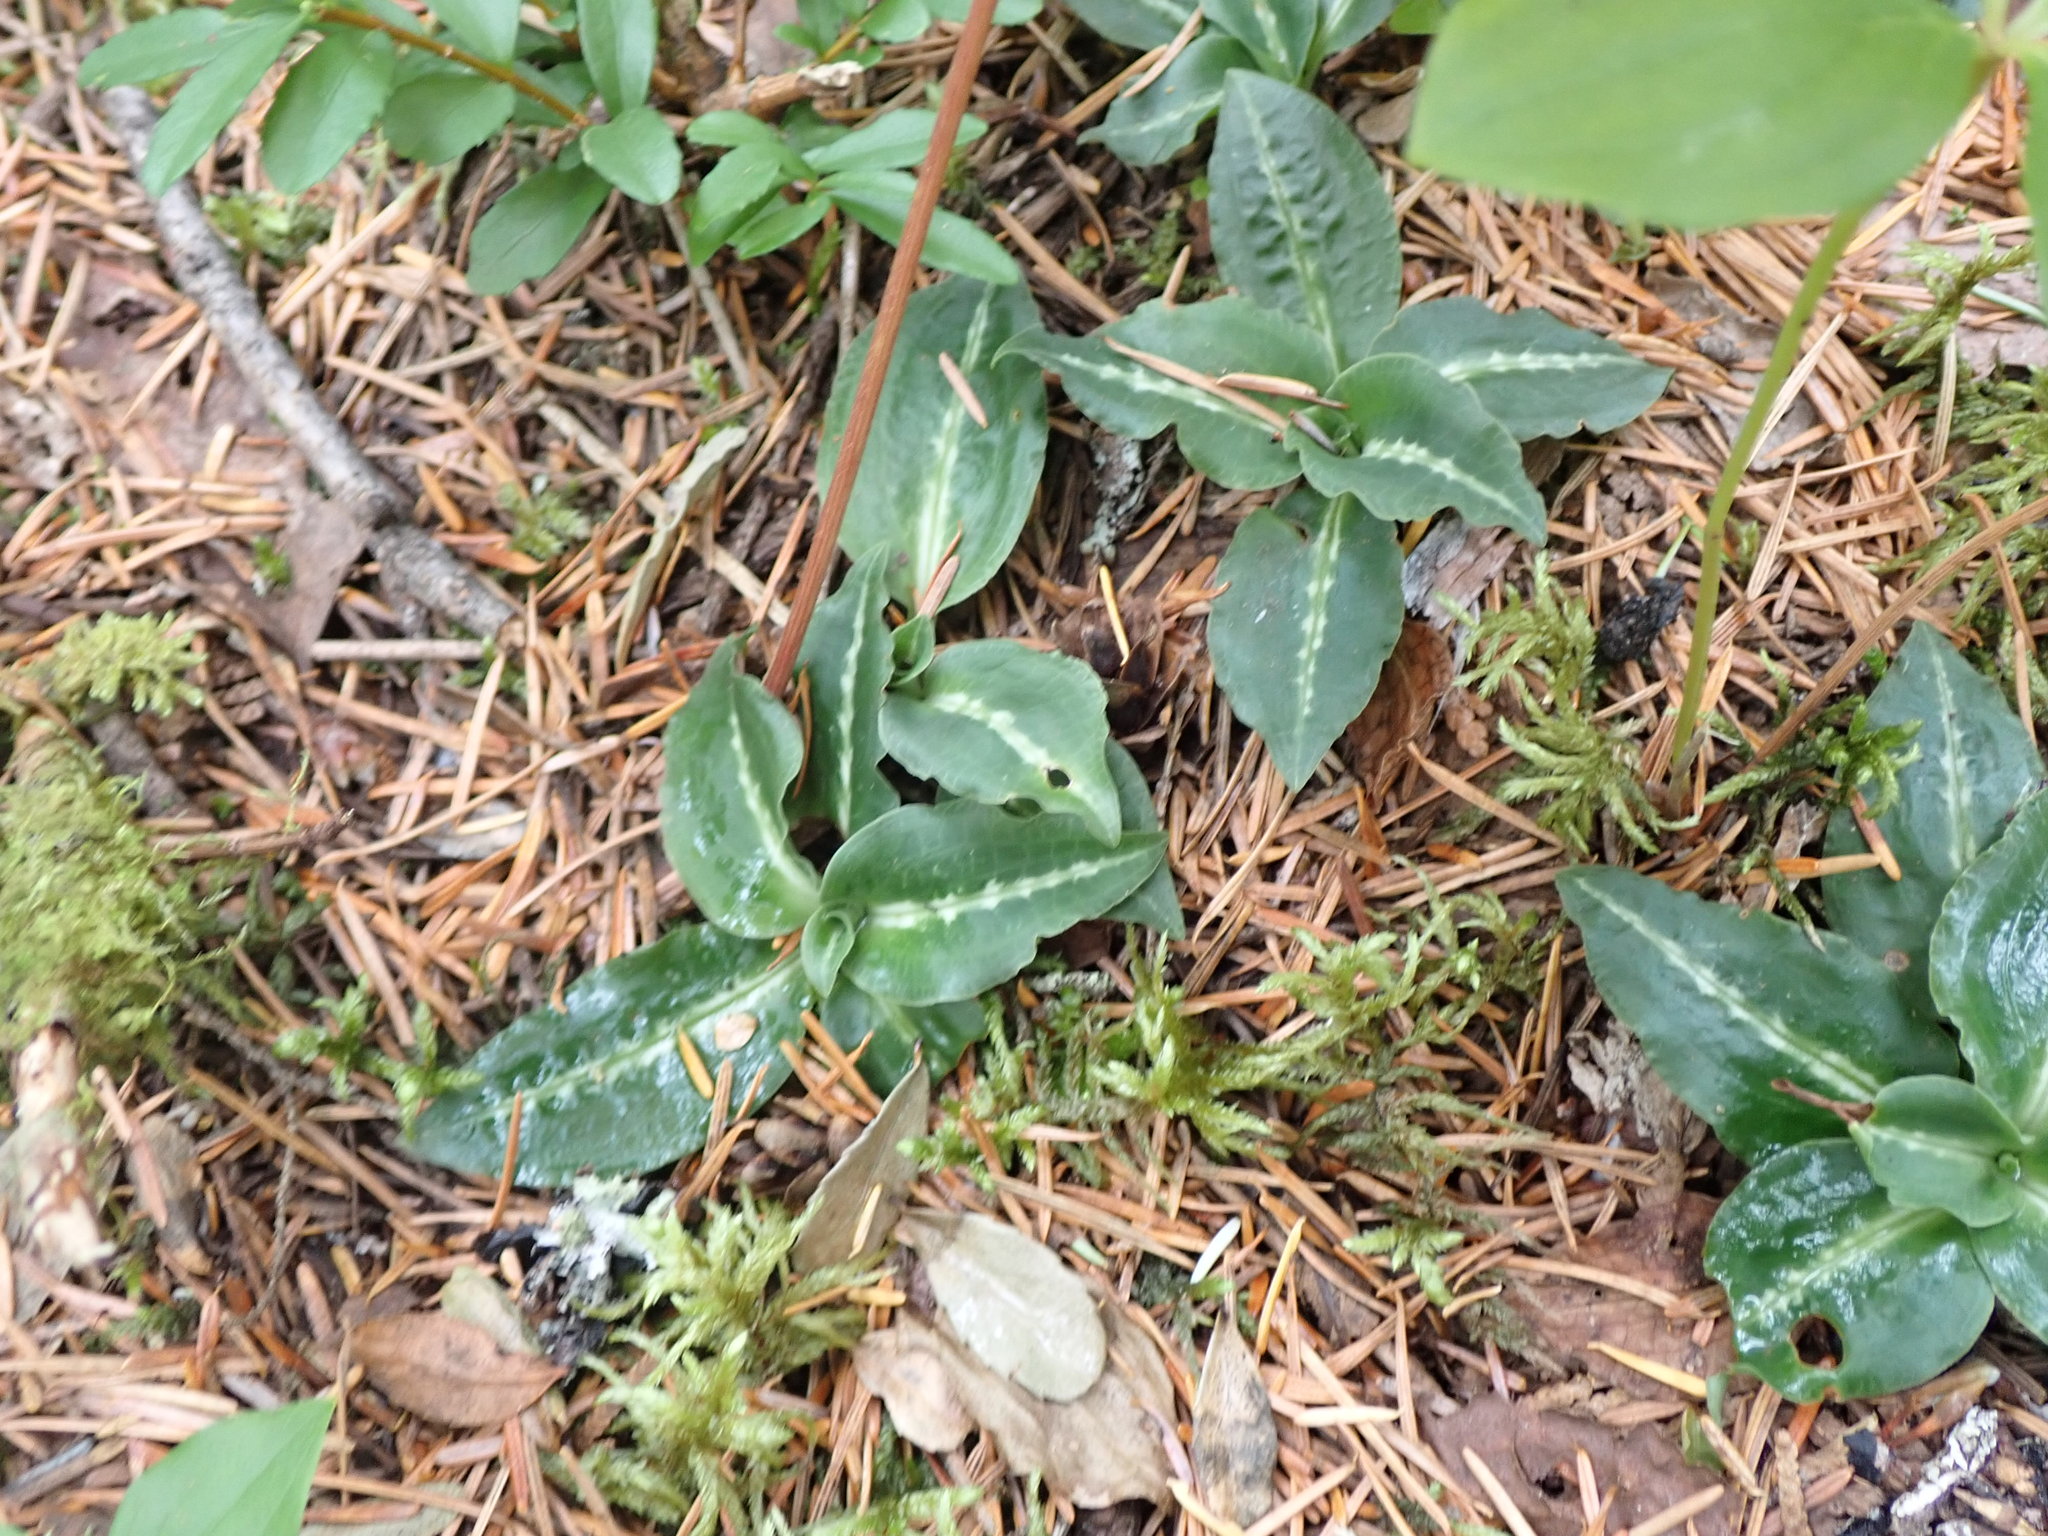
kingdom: Plantae
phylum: Tracheophyta
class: Liliopsida
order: Asparagales
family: Orchidaceae
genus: Goodyera
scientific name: Goodyera oblongifolia
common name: Giant rattlesnake-plantain
